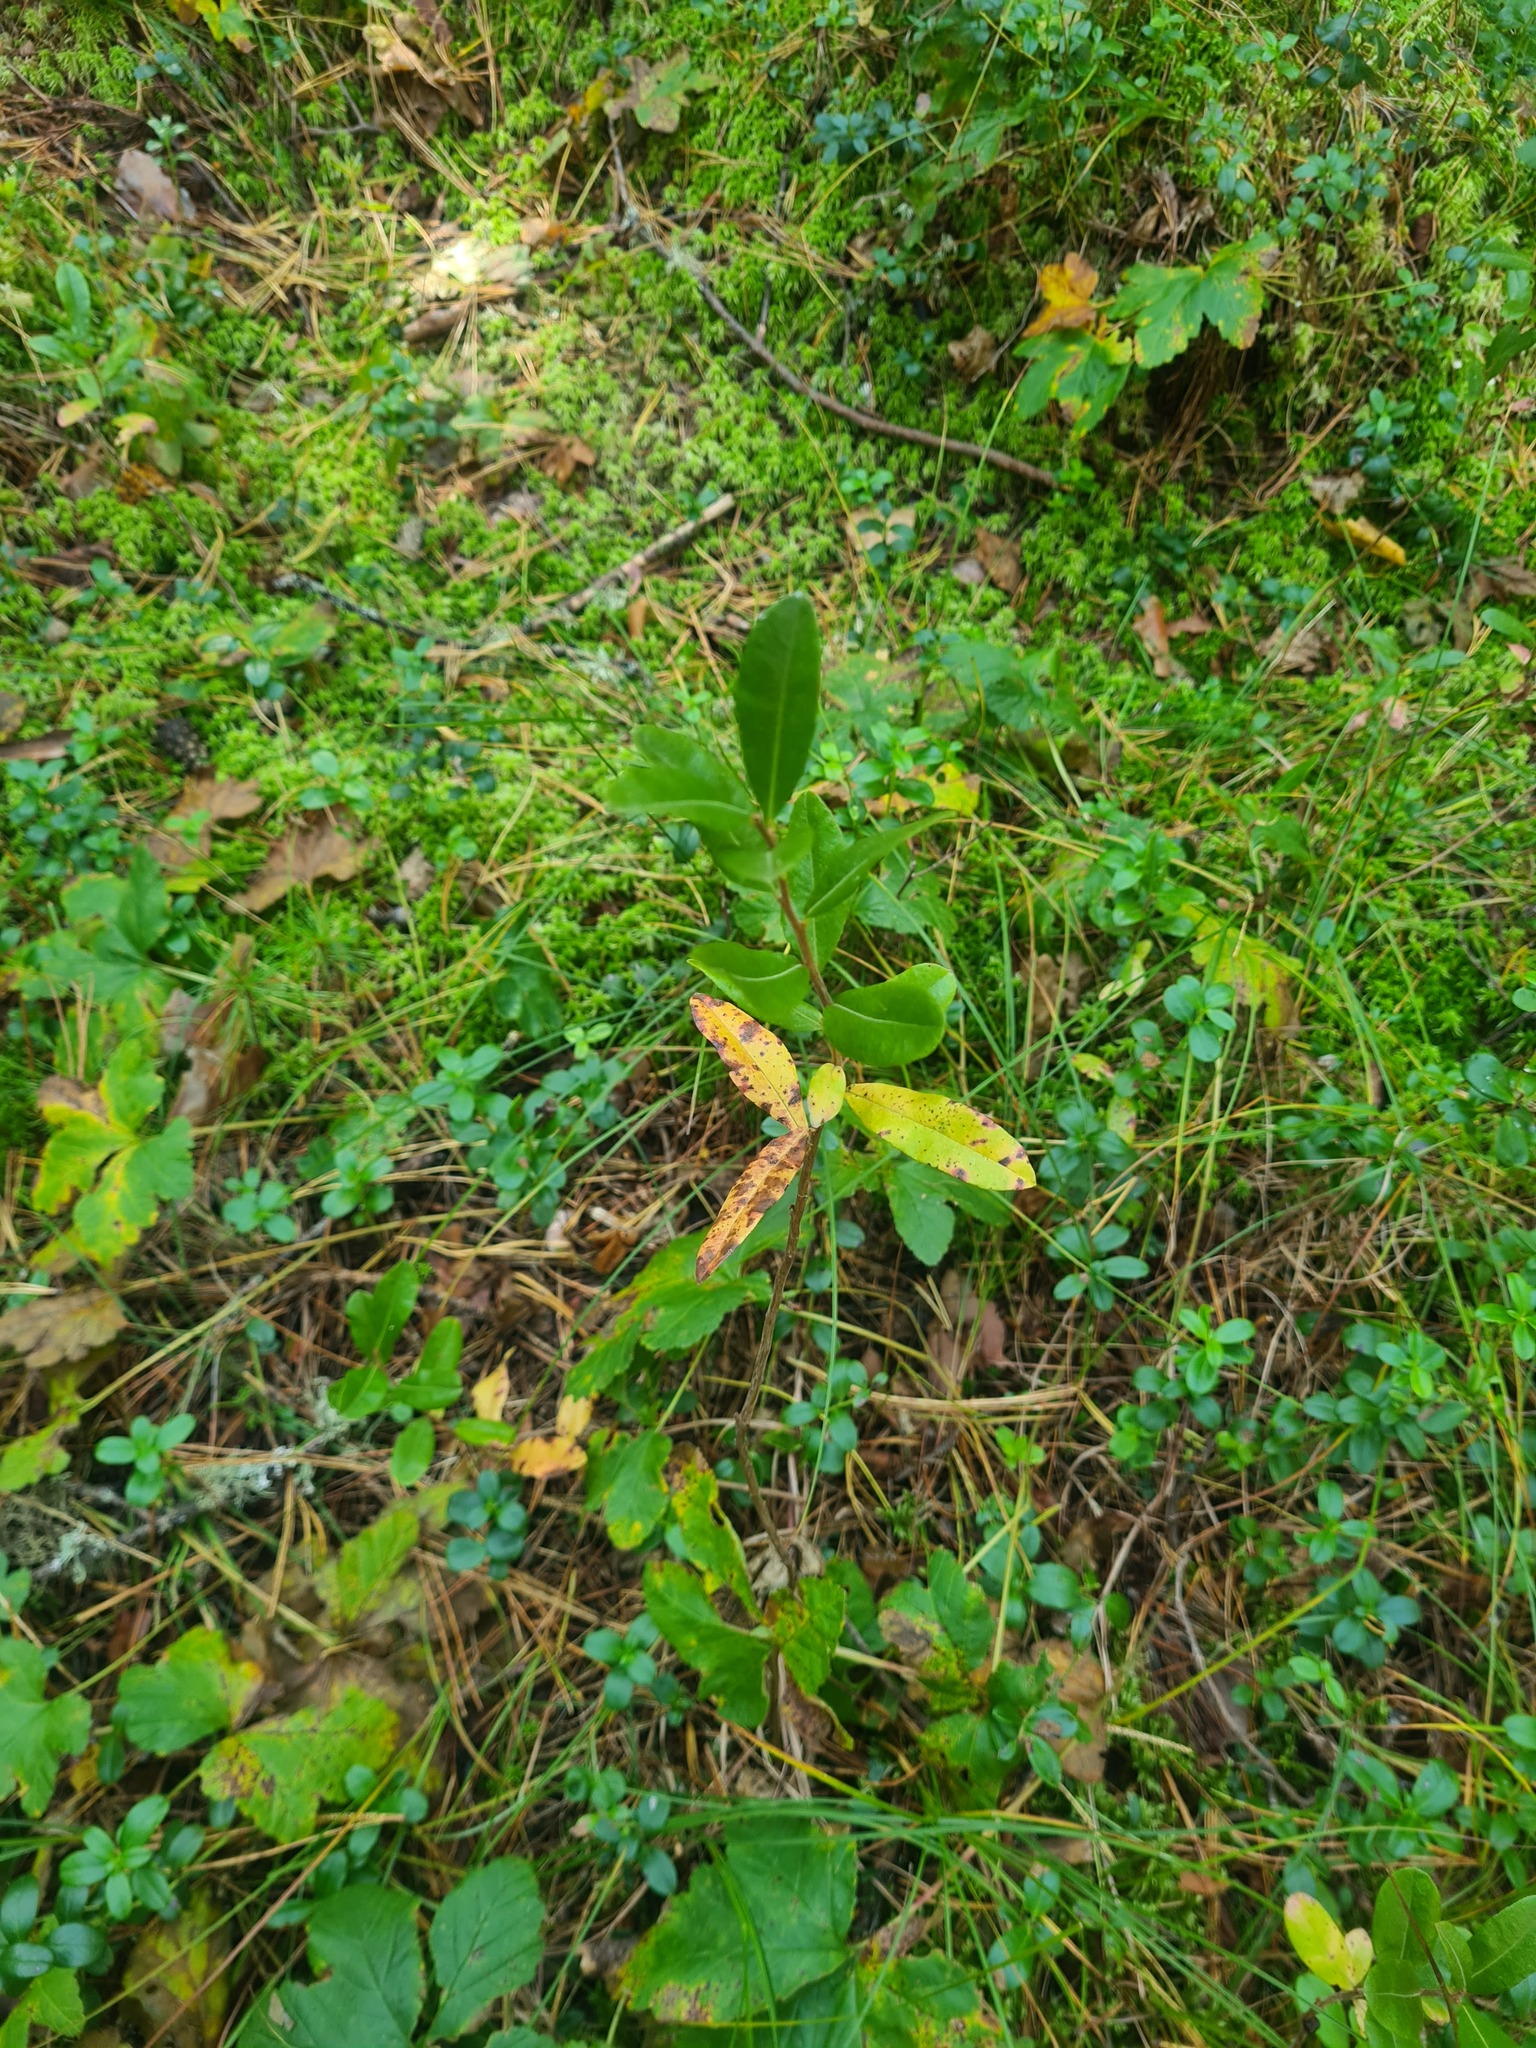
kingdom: Plantae
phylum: Tracheophyta
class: Magnoliopsida
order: Ericales
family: Ericaceae
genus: Chamaedaphne
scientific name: Chamaedaphne calyculata
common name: Leatherleaf
